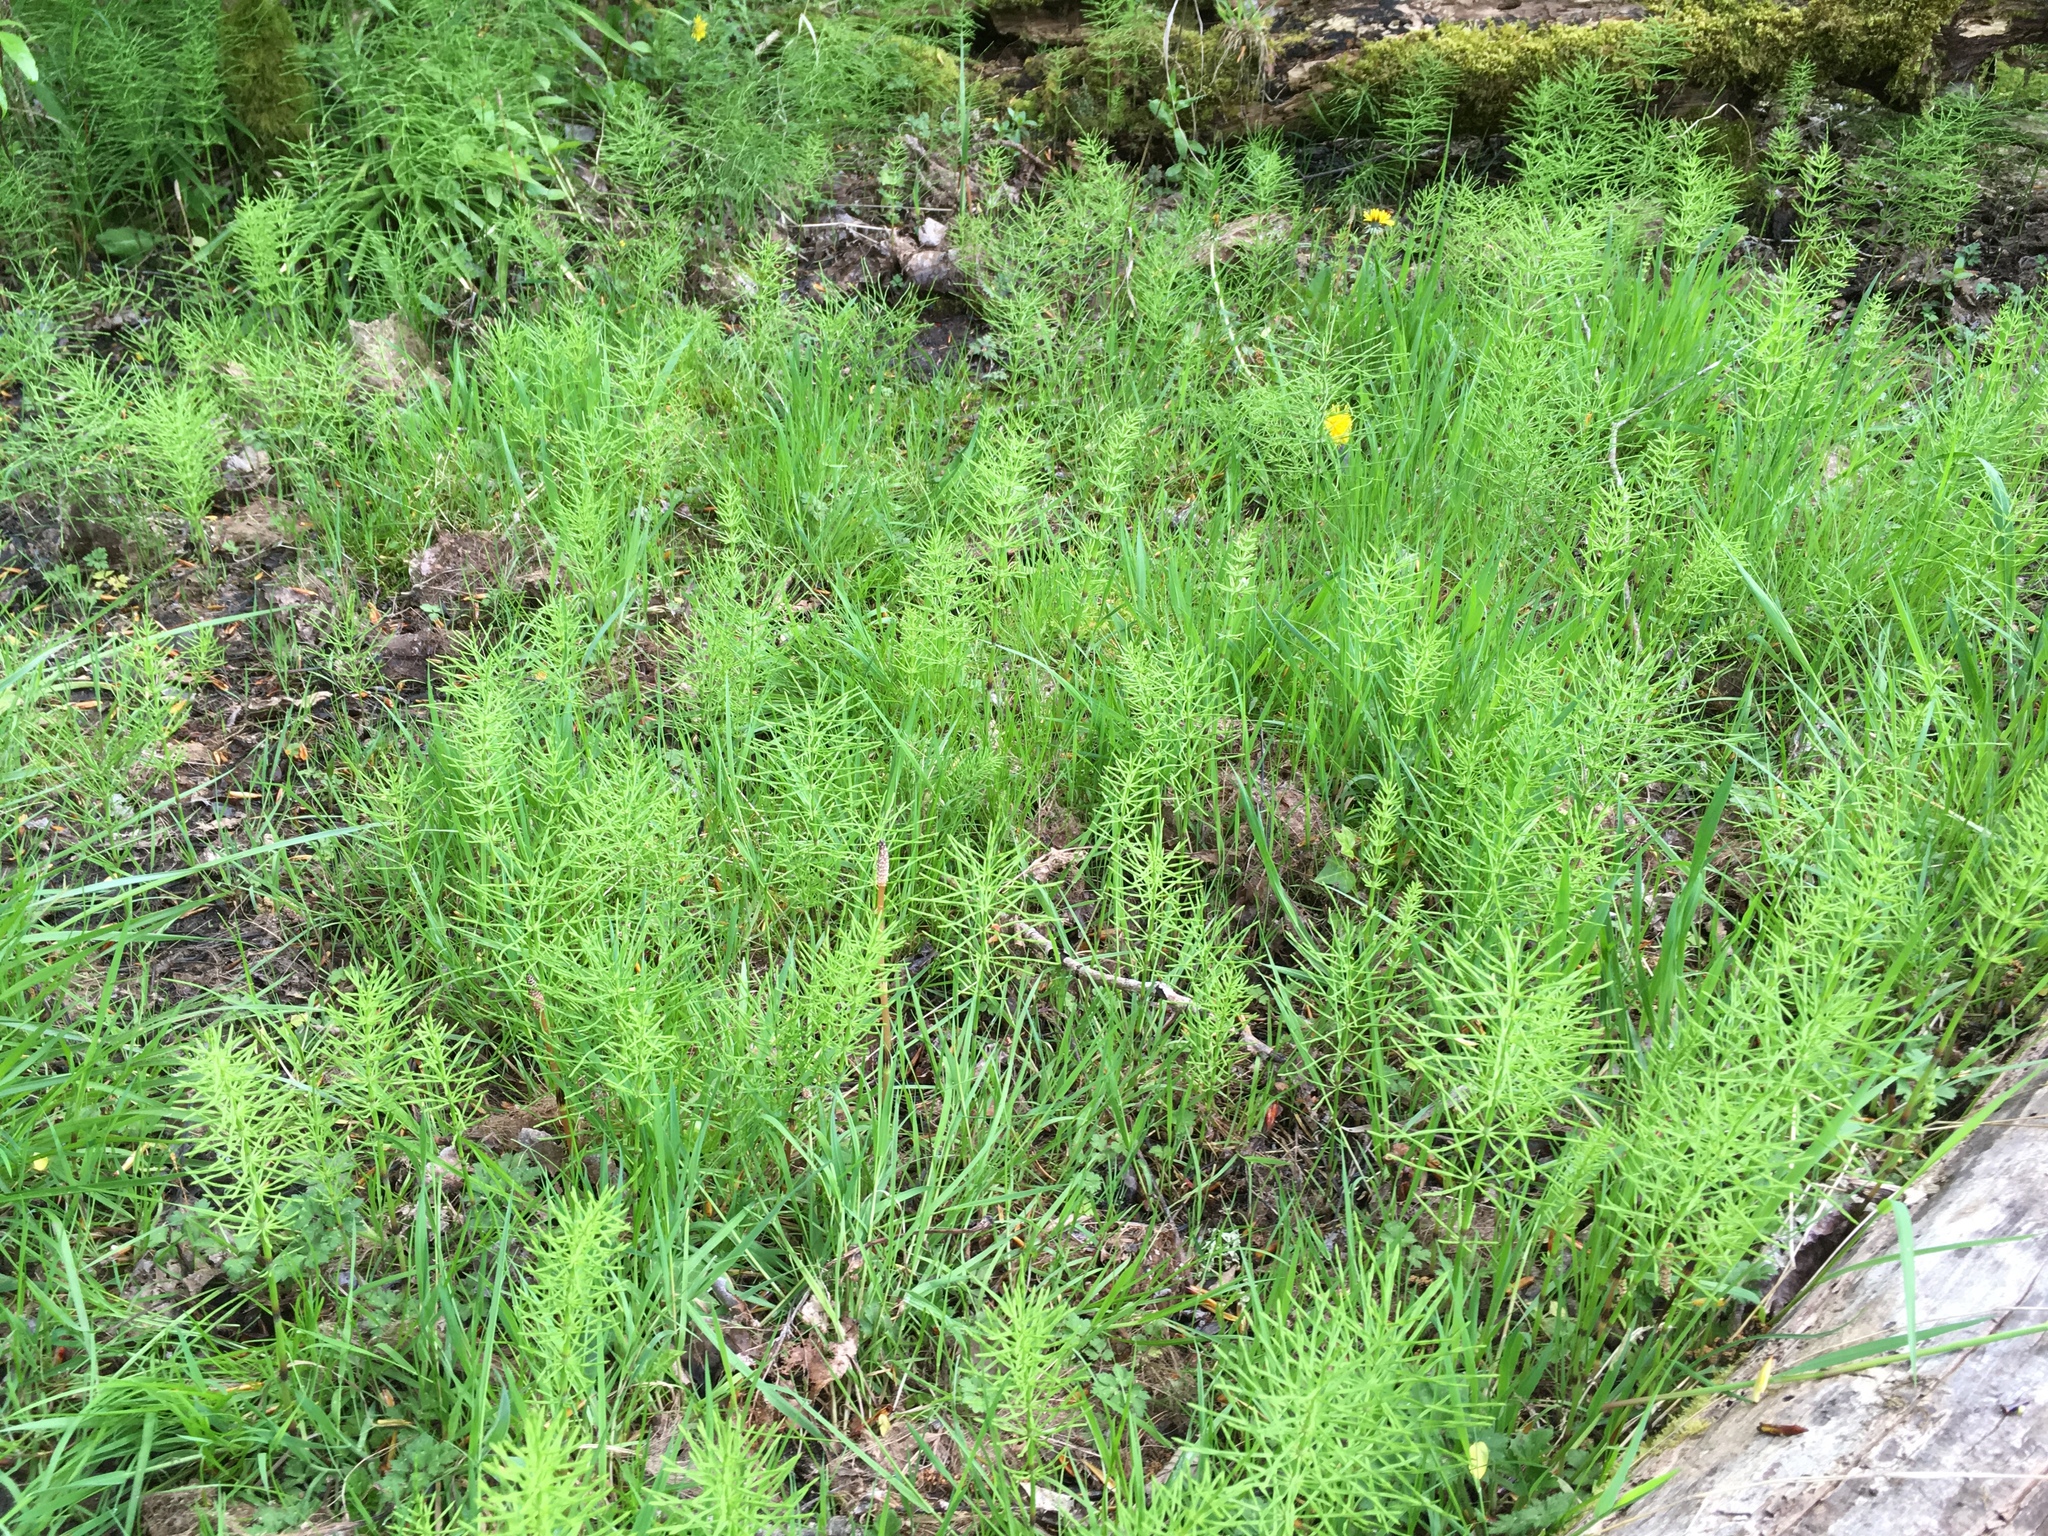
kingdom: Plantae
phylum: Tracheophyta
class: Polypodiopsida
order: Equisetales
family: Equisetaceae
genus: Equisetum
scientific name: Equisetum arvense
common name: Field horsetail
